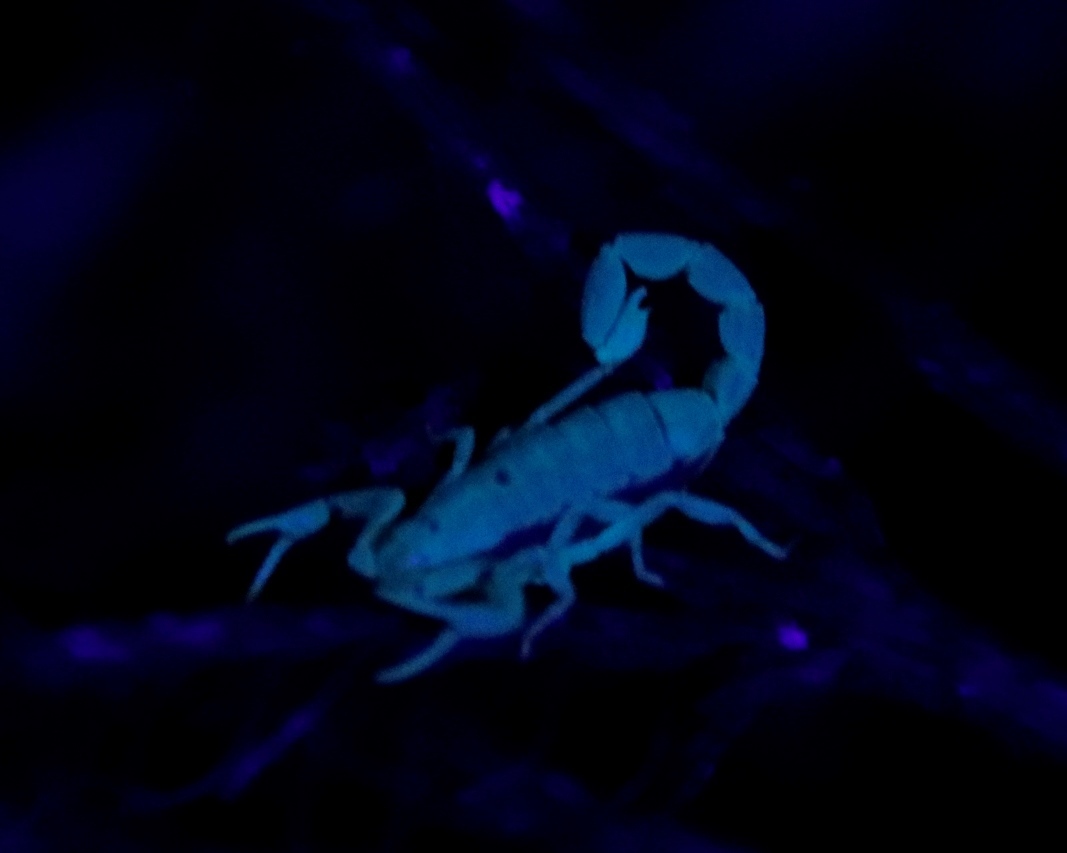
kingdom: Animalia
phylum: Arthropoda
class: Arachnida
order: Scorpiones
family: Buthidae
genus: Uroplectes
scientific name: Uroplectes lineatus
